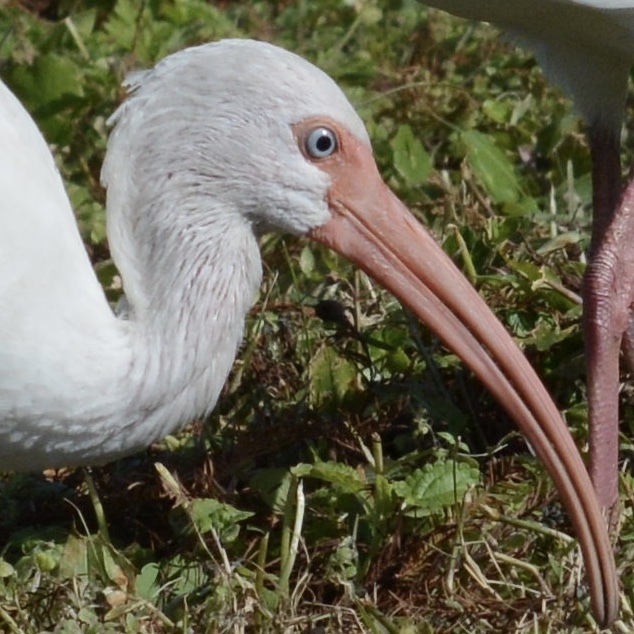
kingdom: Animalia
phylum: Chordata
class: Aves
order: Pelecaniformes
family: Threskiornithidae
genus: Eudocimus
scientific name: Eudocimus albus
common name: White ibis
